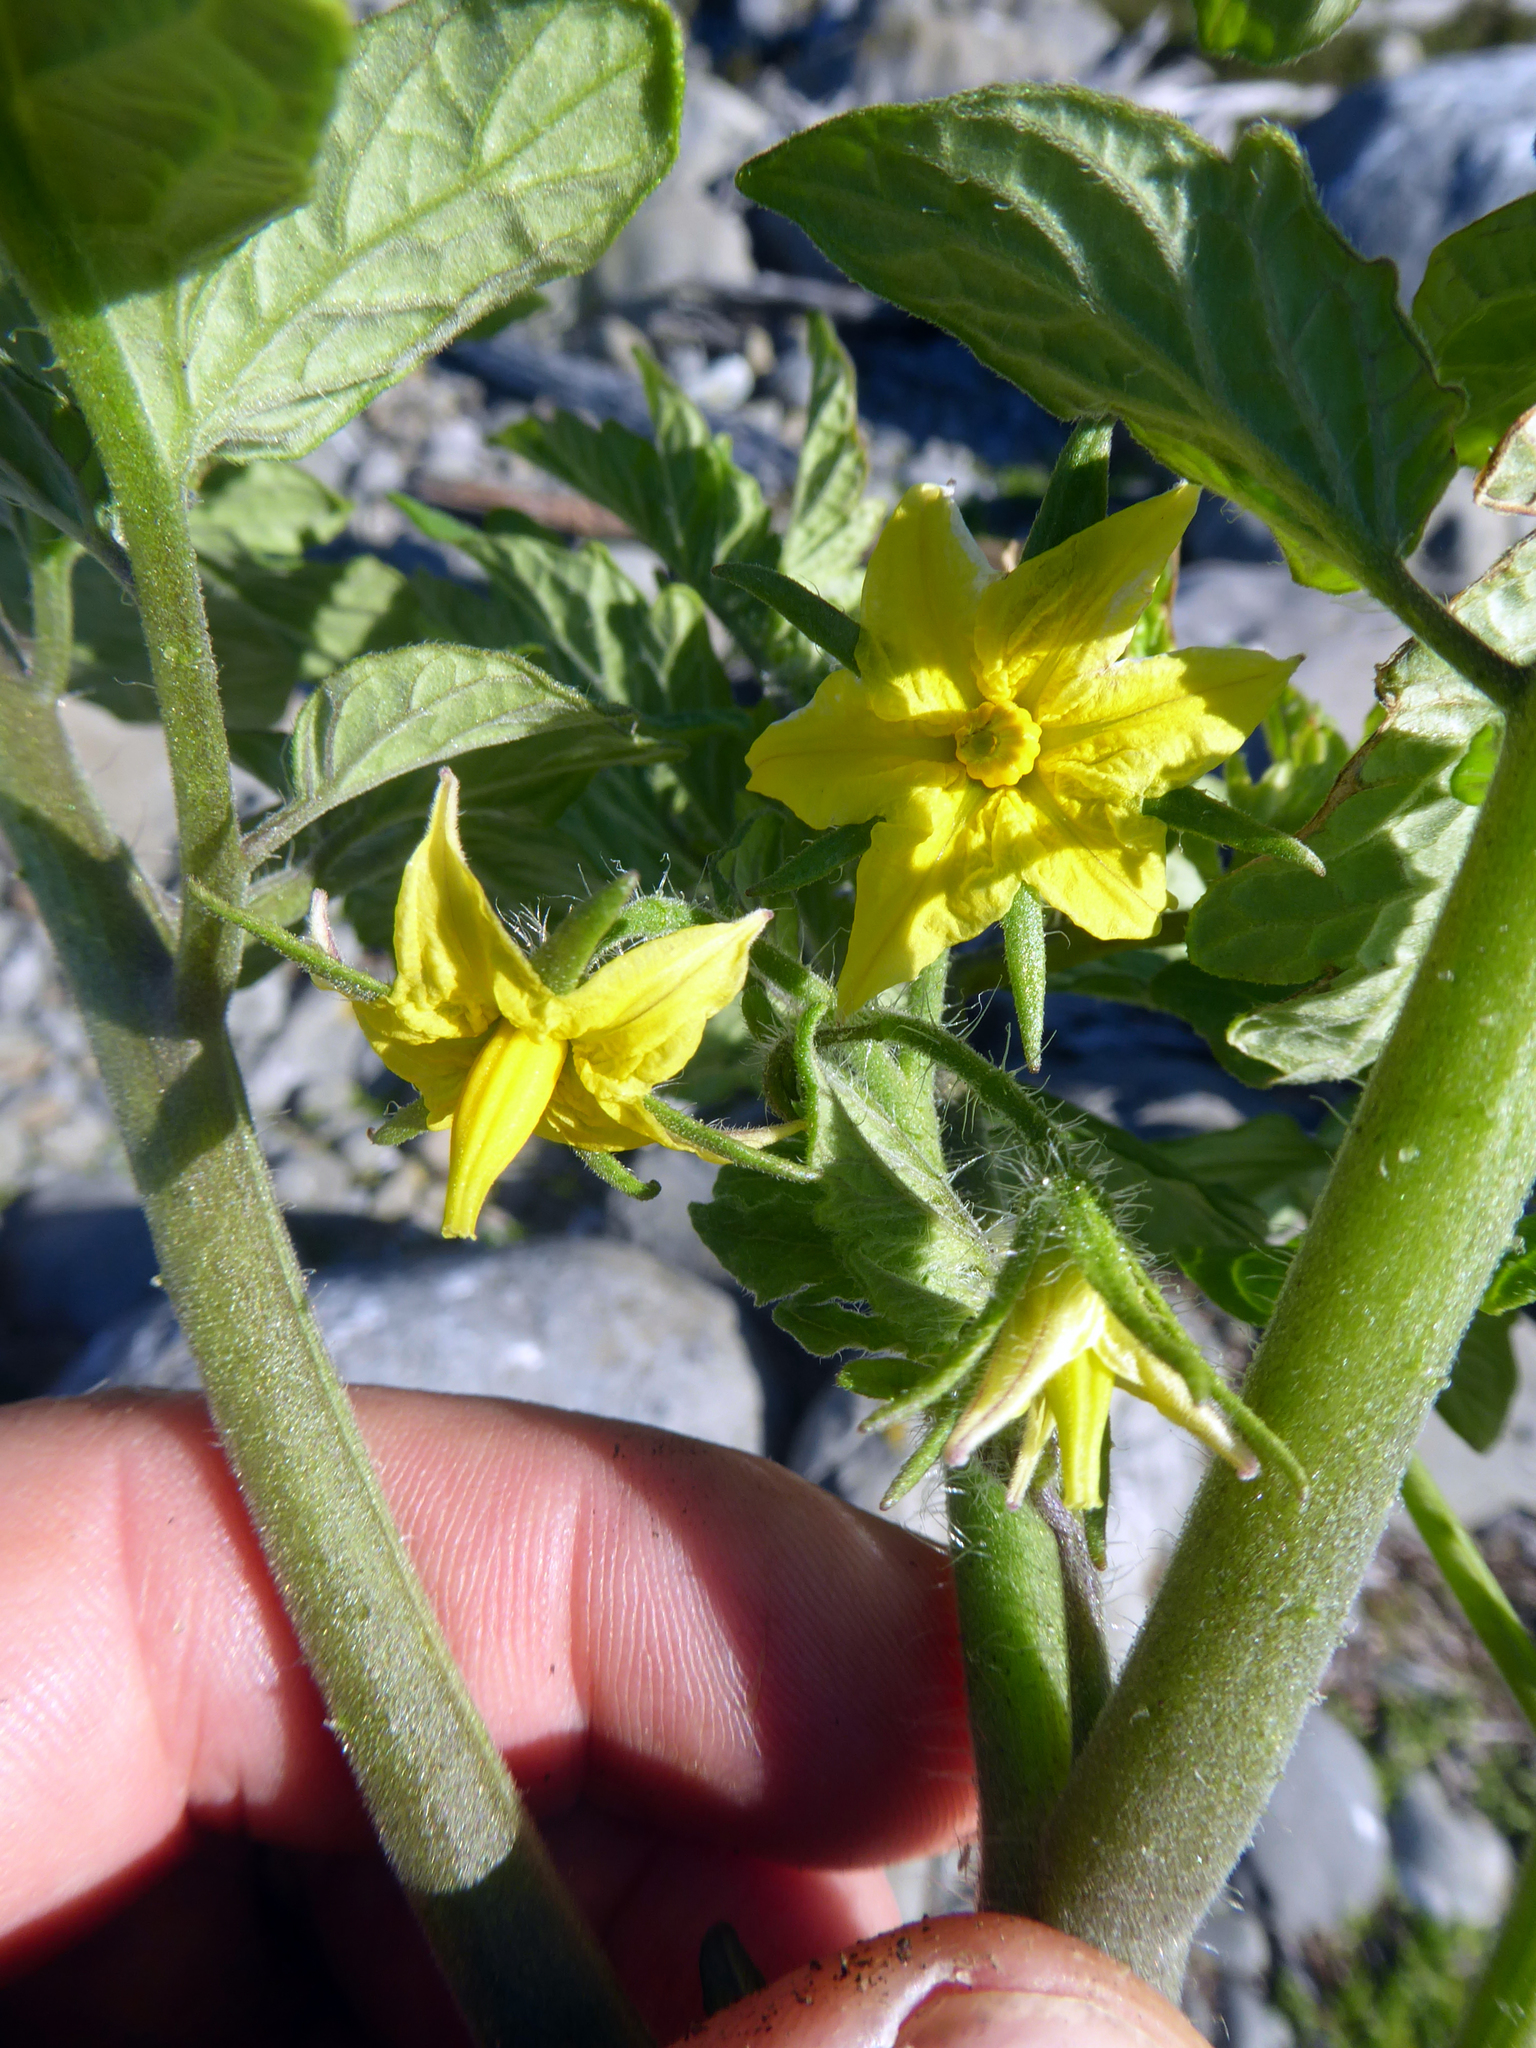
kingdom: Plantae
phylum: Tracheophyta
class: Magnoliopsida
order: Solanales
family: Solanaceae
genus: Solanum
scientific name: Solanum lycopersicum
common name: Garden tomato
